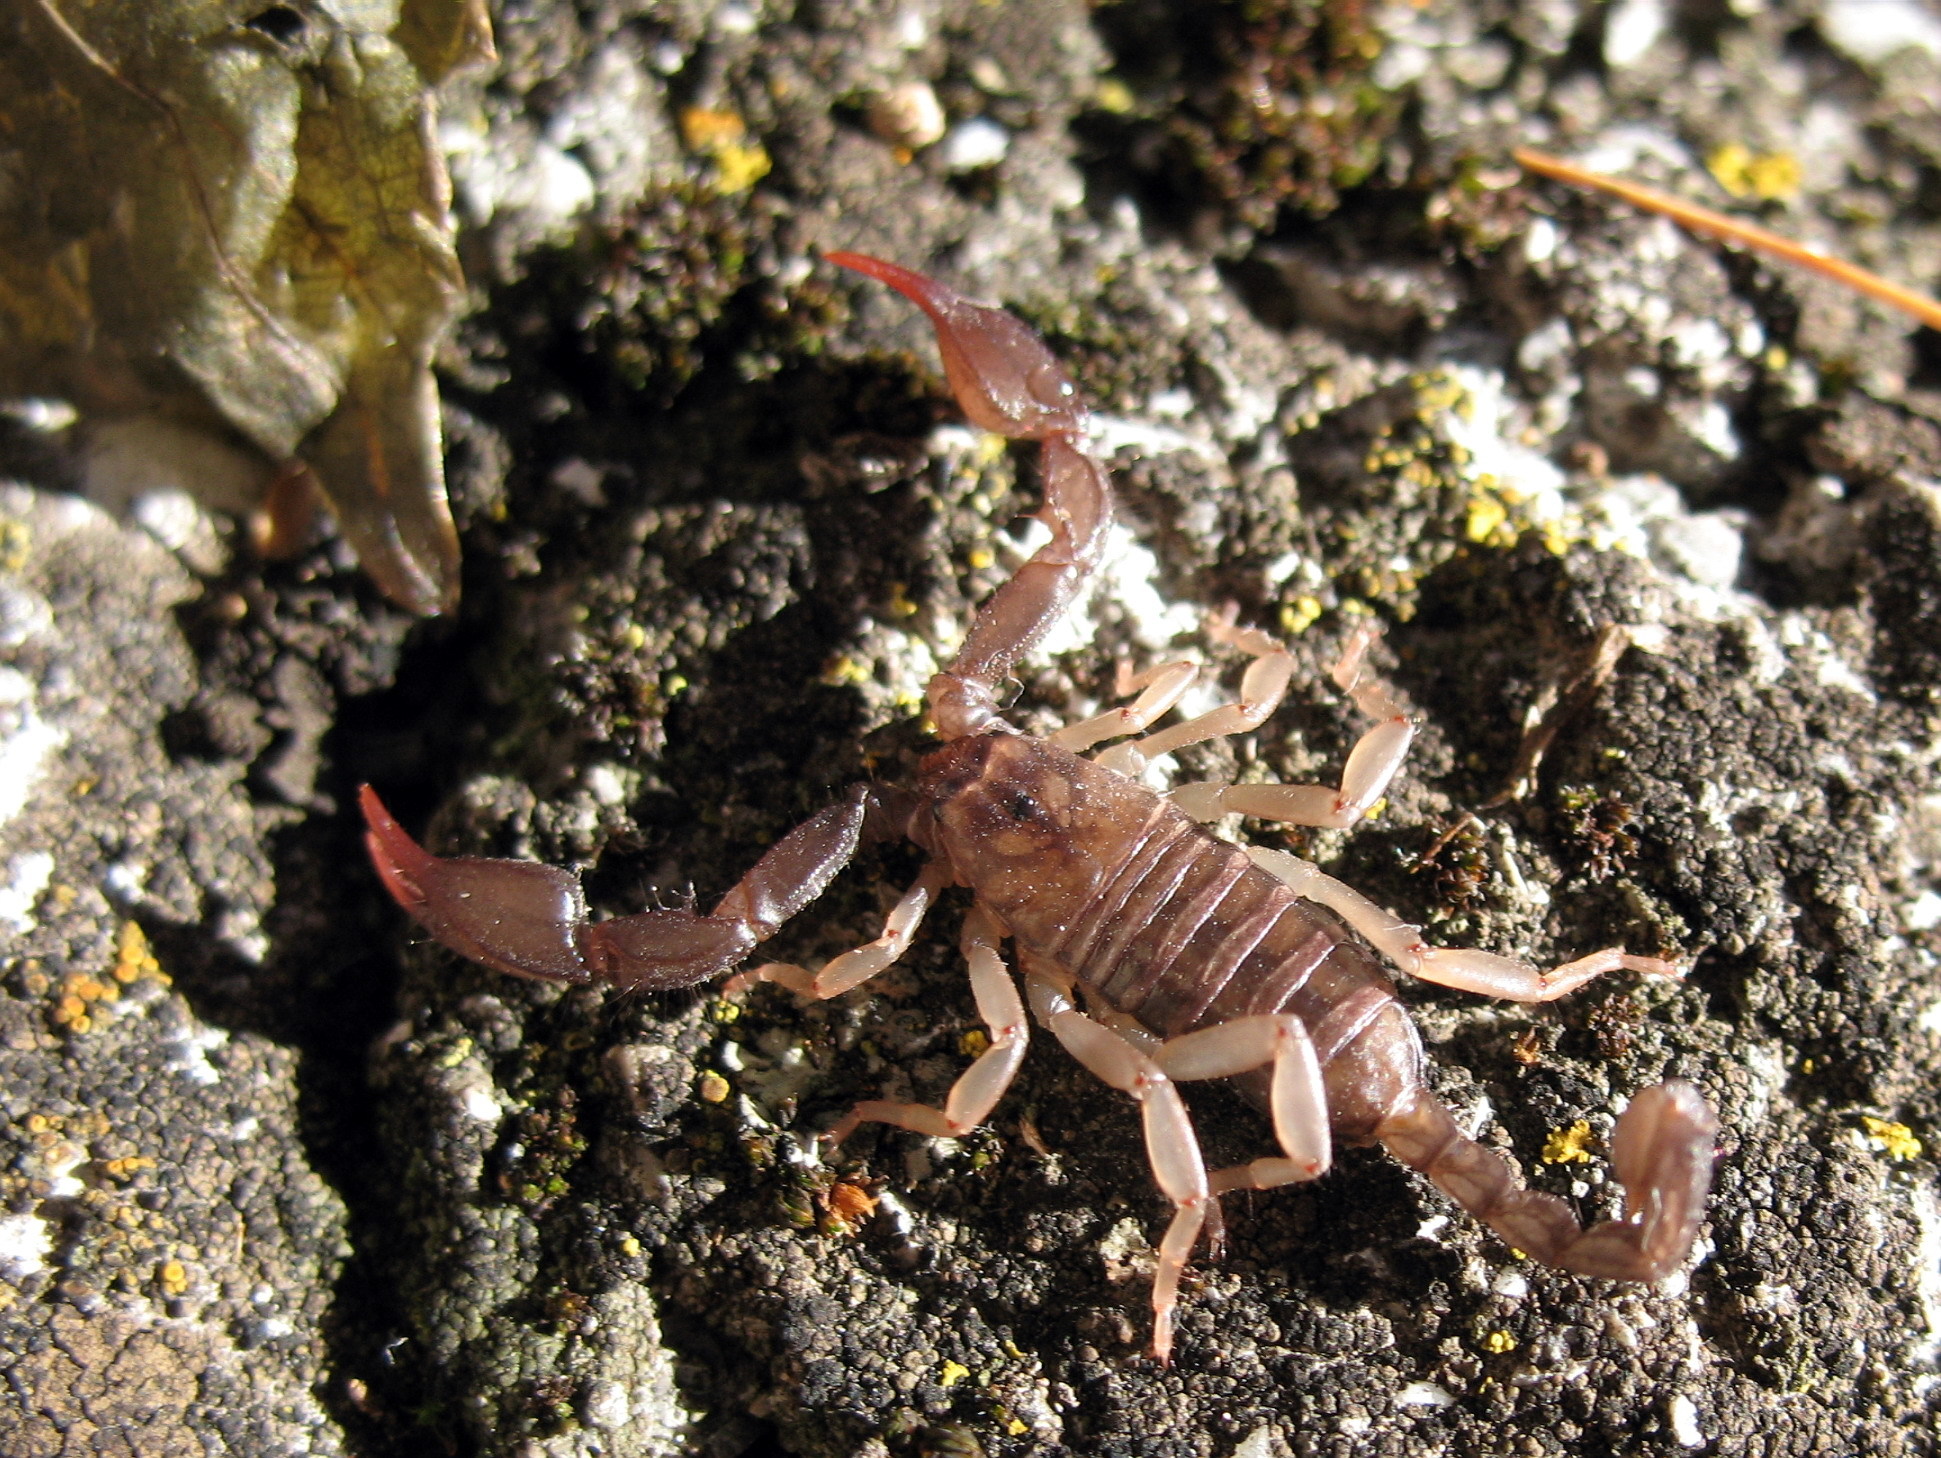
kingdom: Animalia
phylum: Arthropoda
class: Arachnida
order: Scorpiones
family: Euscorpiidae
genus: Euscorpius
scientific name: Euscorpius
